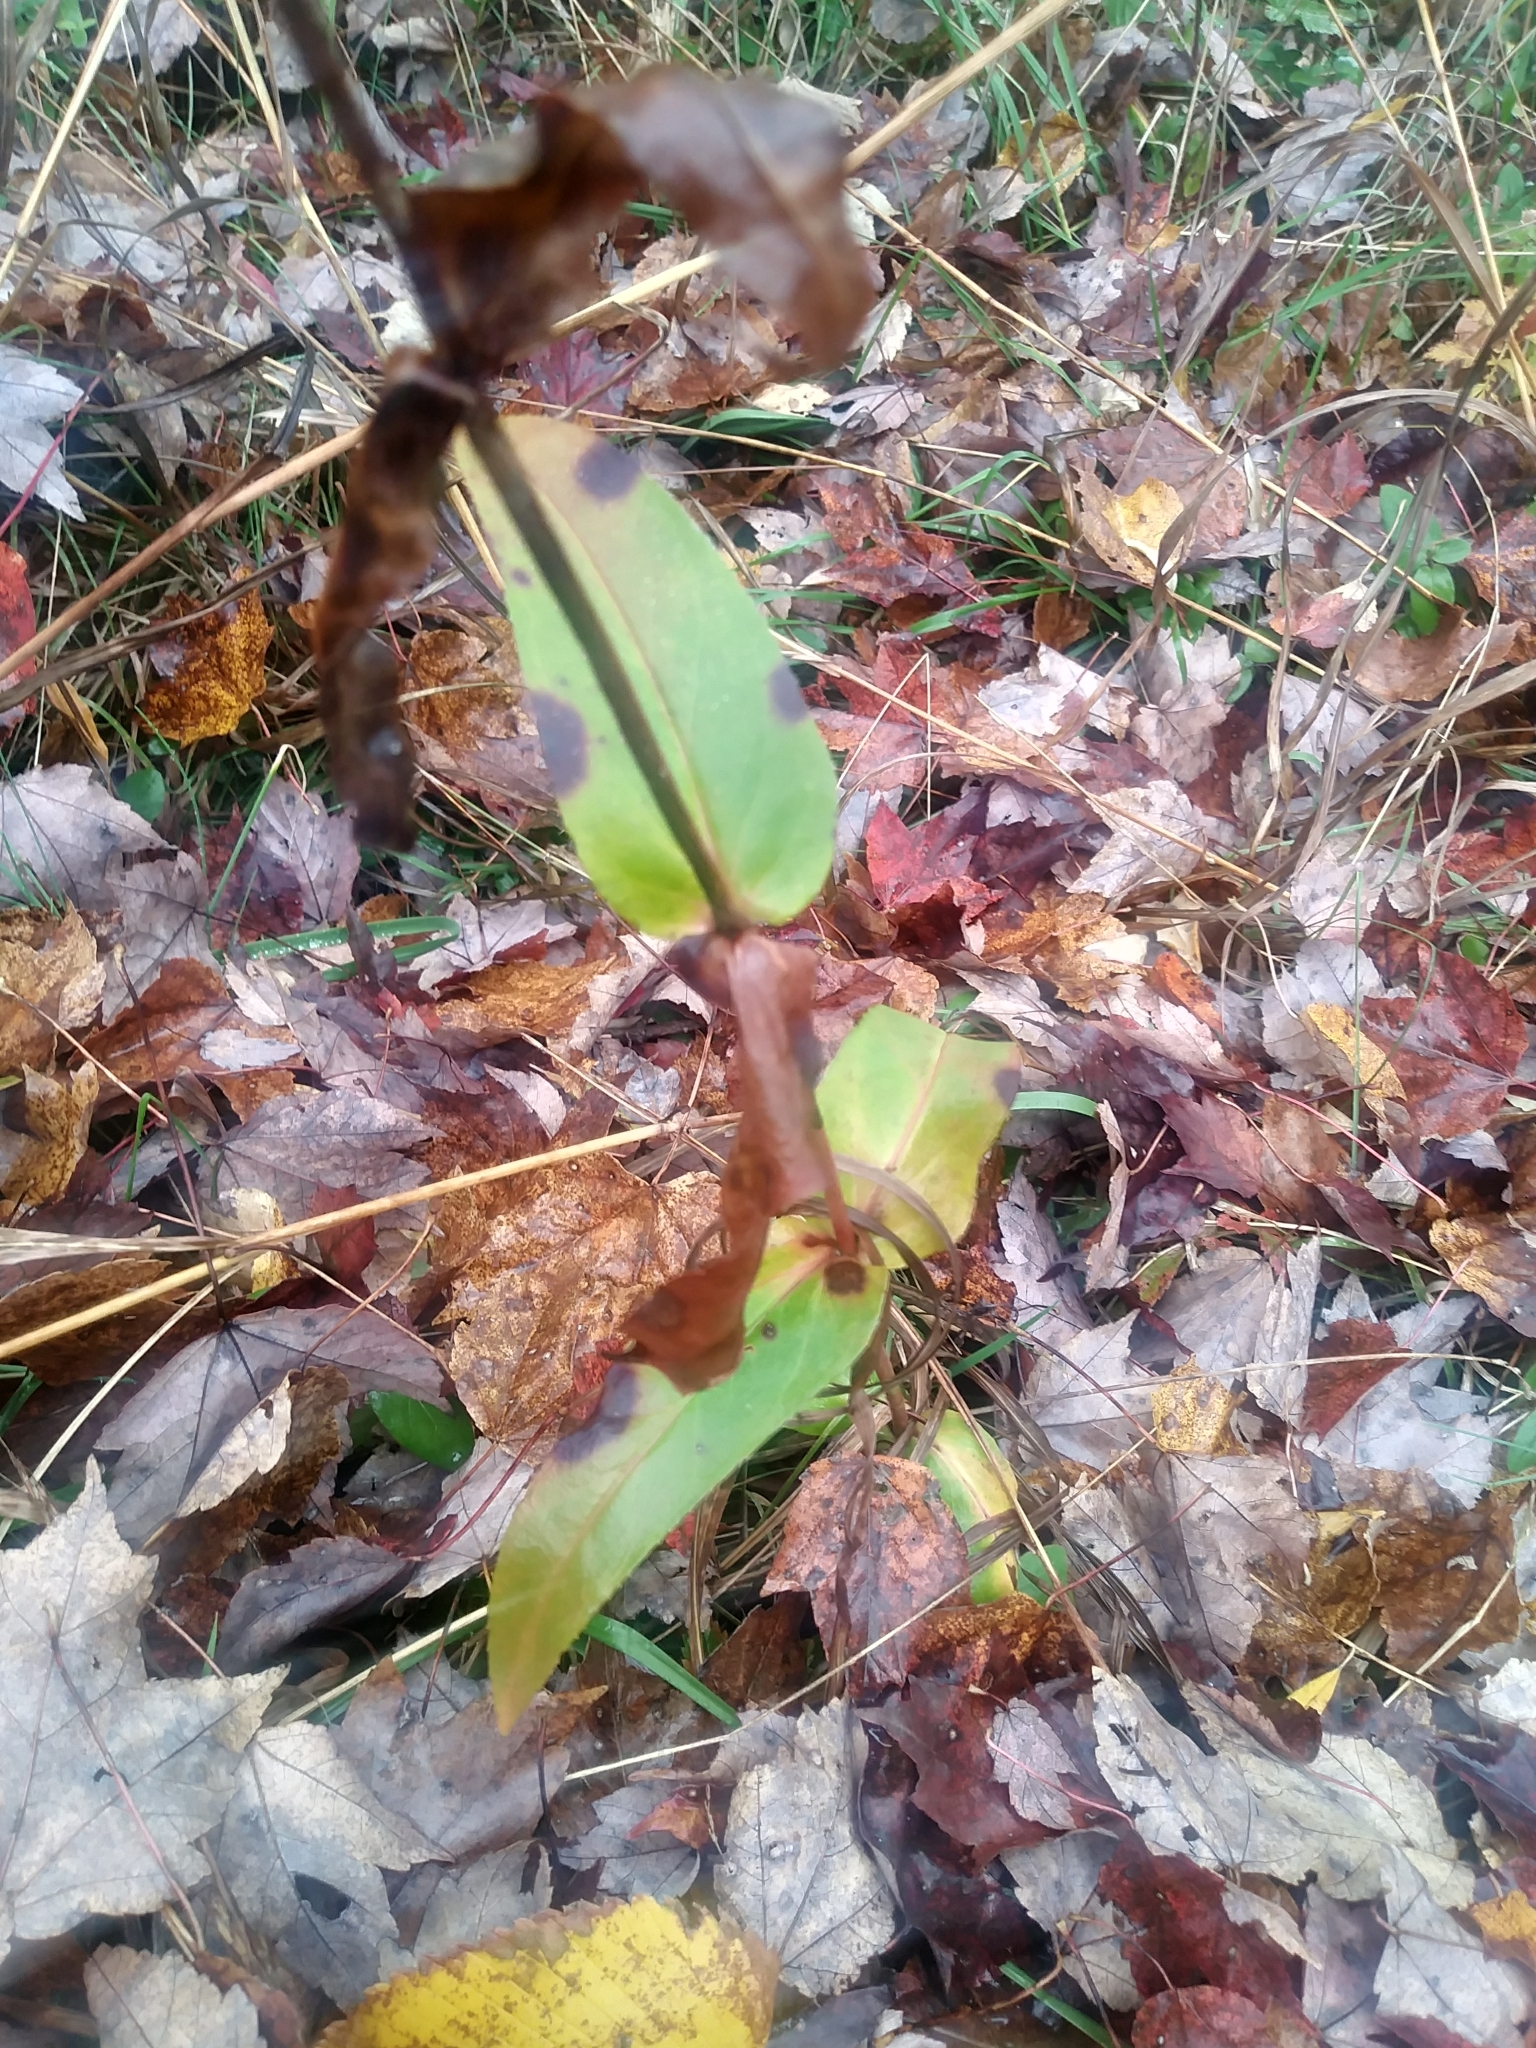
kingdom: Plantae
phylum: Tracheophyta
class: Magnoliopsida
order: Lamiales
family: Plantaginaceae
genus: Penstemon
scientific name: Penstemon digitalis
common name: Foxglove beardtongue
